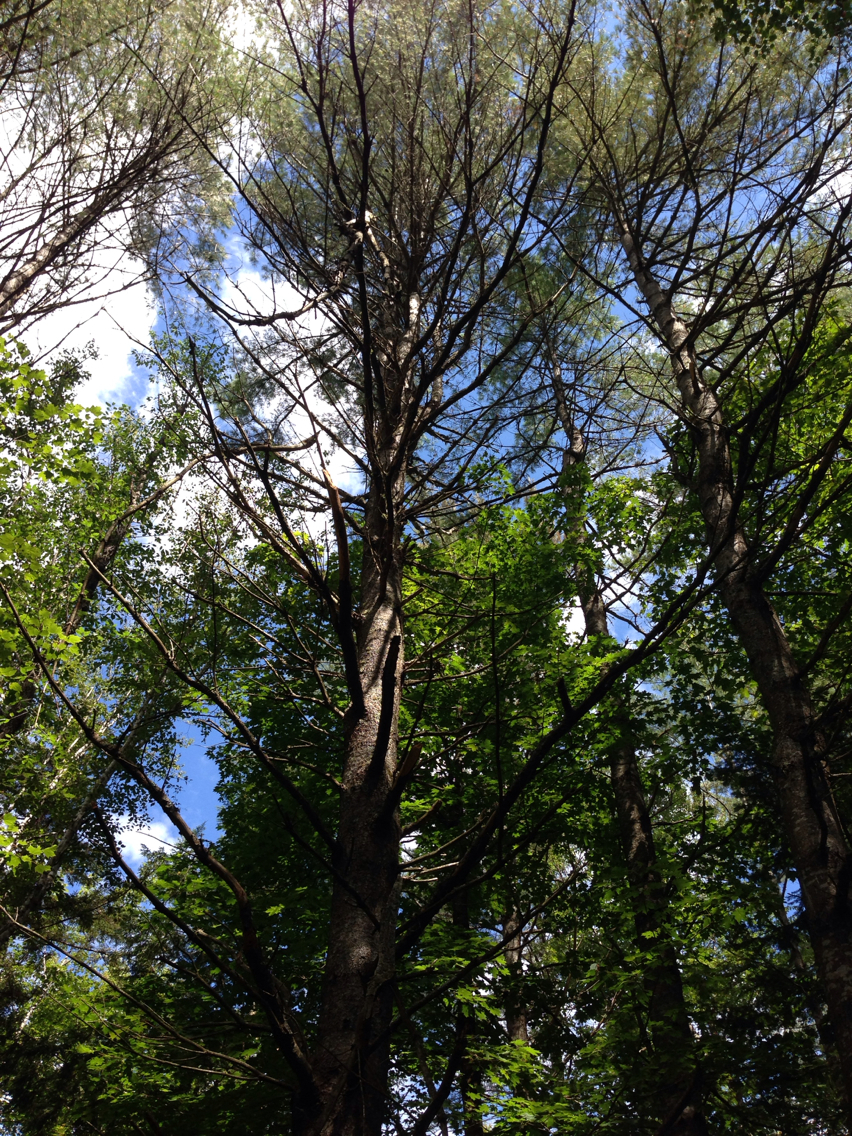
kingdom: Plantae
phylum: Tracheophyta
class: Pinopsida
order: Pinales
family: Pinaceae
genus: Pinus
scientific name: Pinus strobus
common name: Weymouth pine
